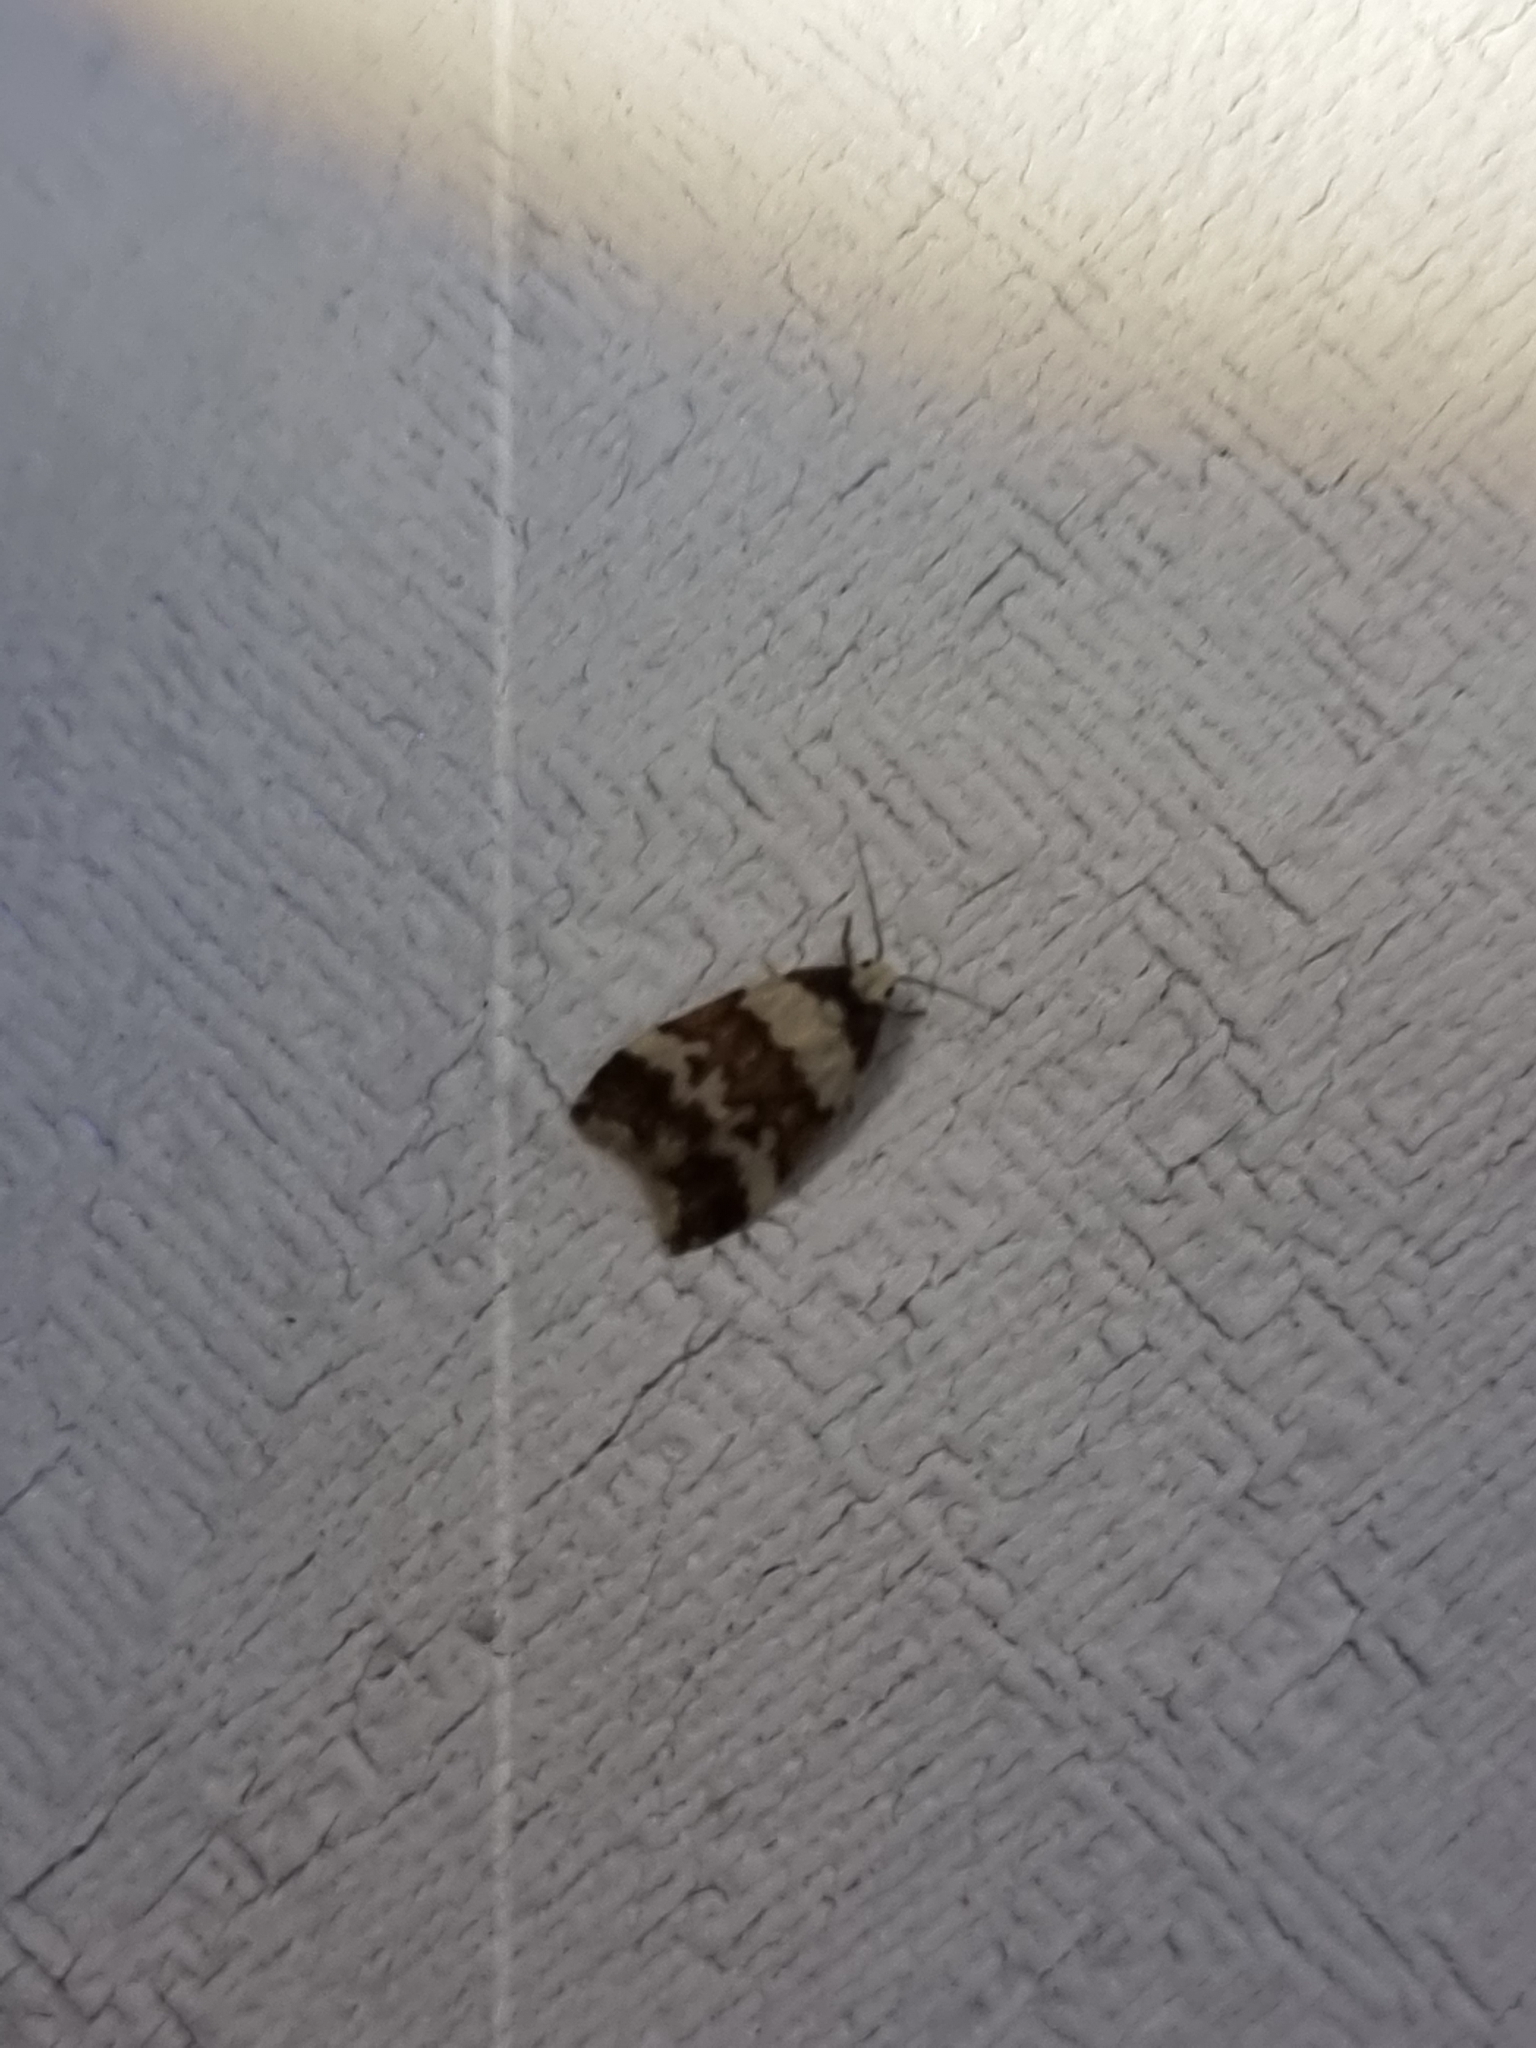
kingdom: Animalia
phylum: Arthropoda
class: Insecta
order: Lepidoptera
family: Erebidae
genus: Halone
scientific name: Halone sejuncta
